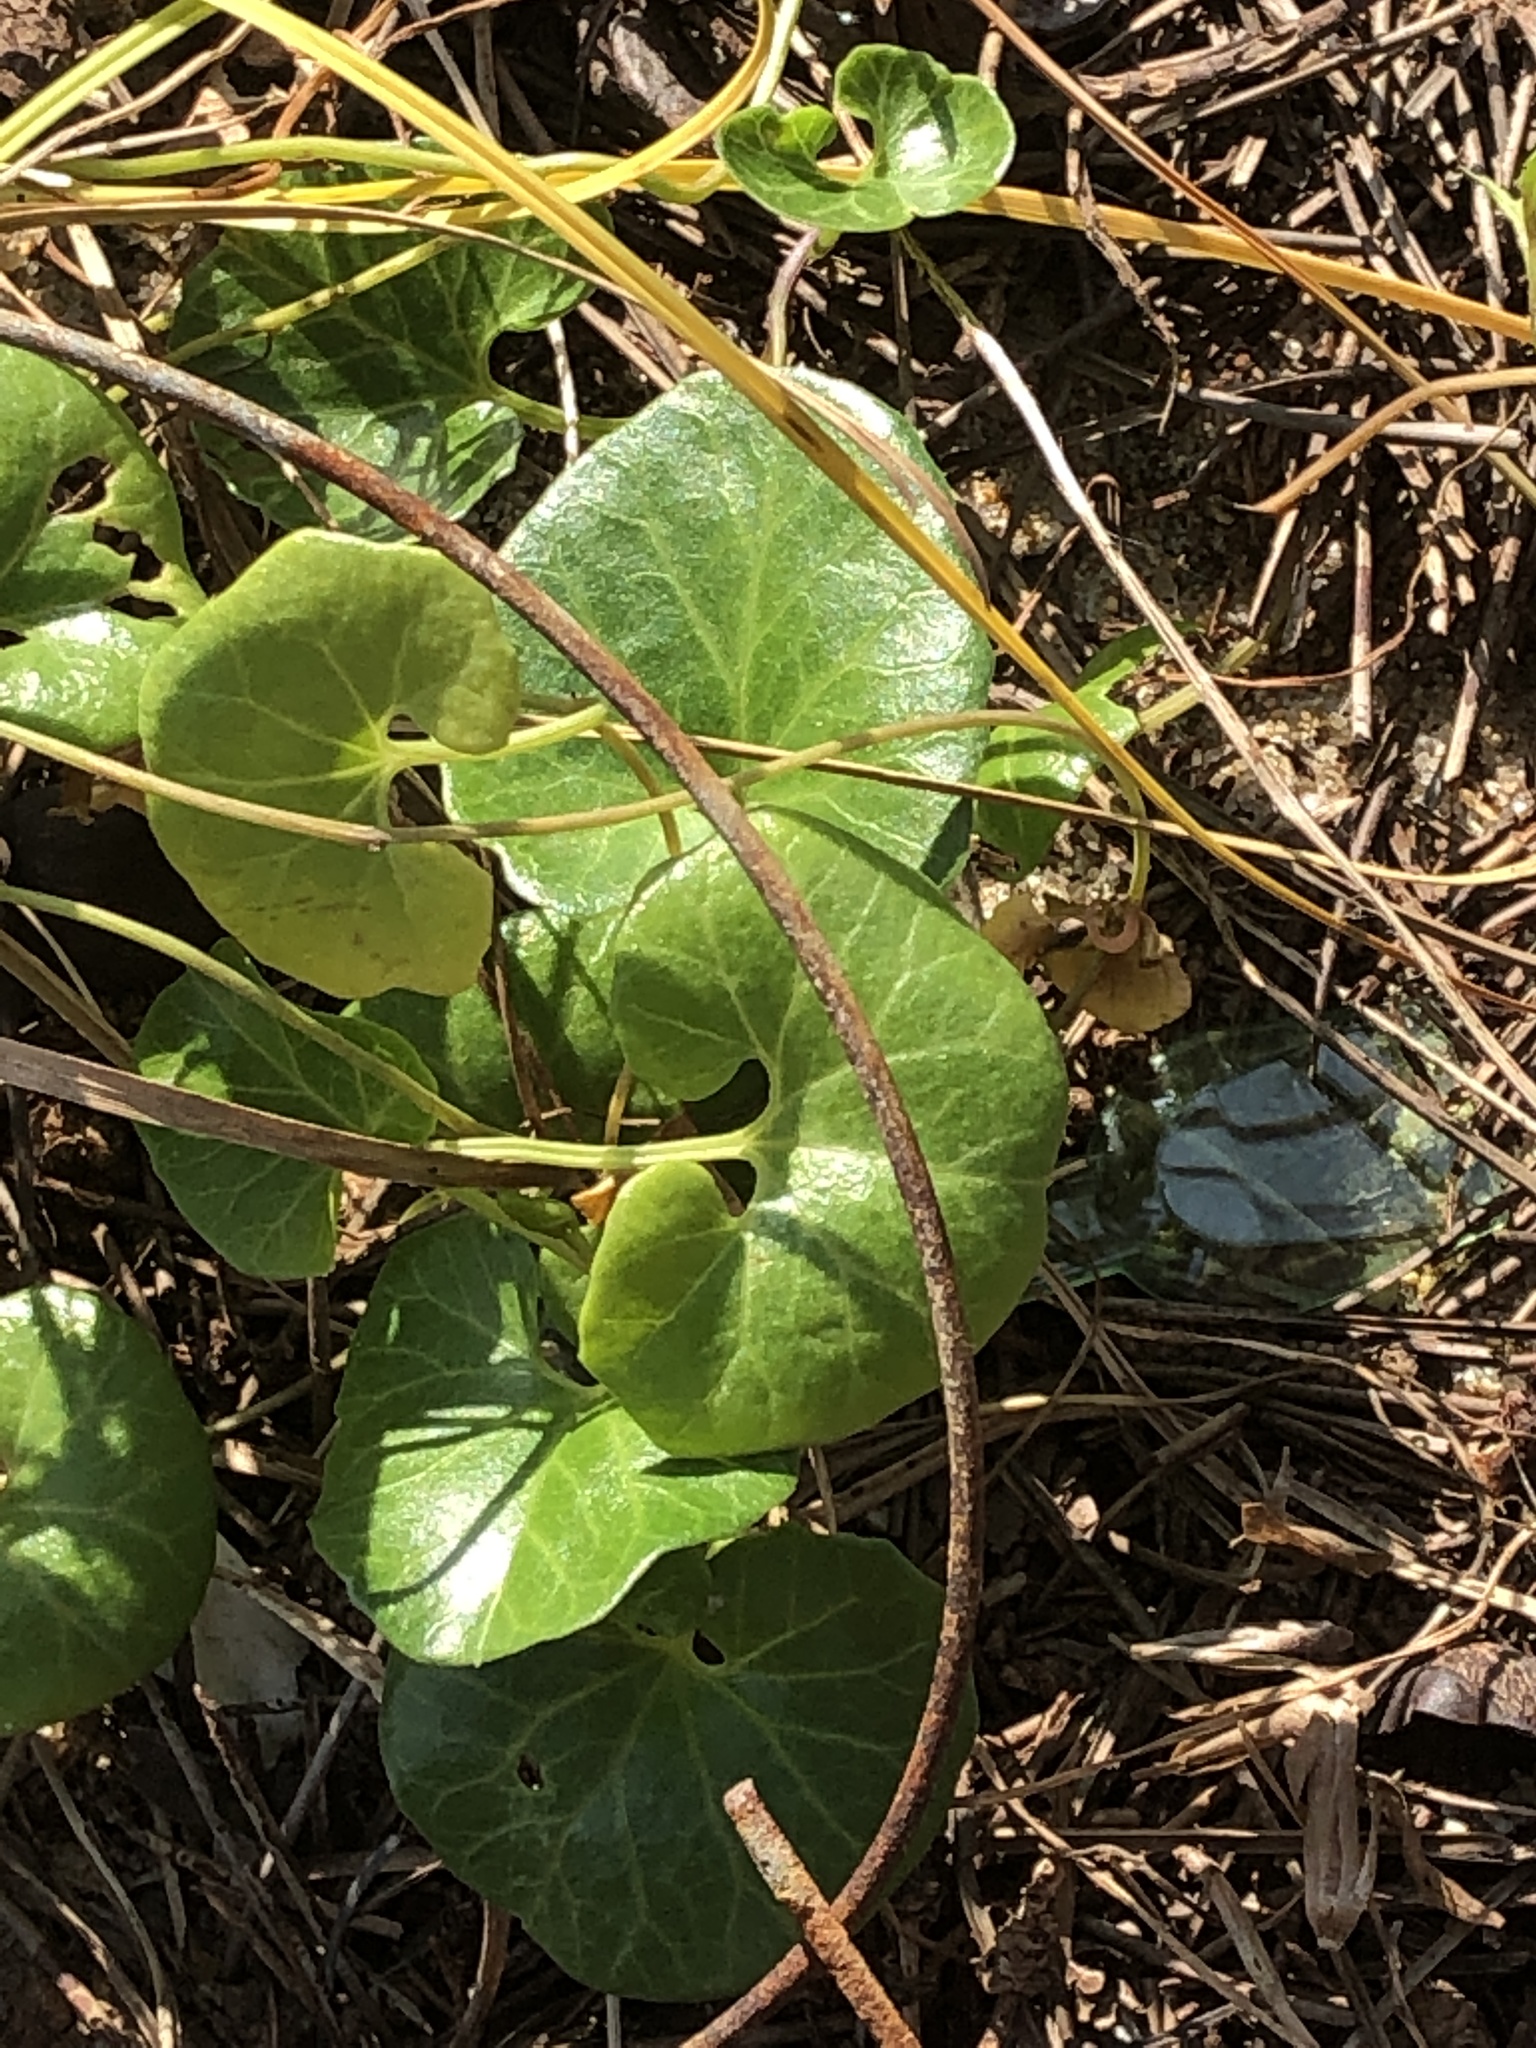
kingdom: Plantae
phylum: Tracheophyta
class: Magnoliopsida
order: Solanales
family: Convolvulaceae
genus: Calystegia
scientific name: Calystegia soldanella
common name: Sea bindweed
